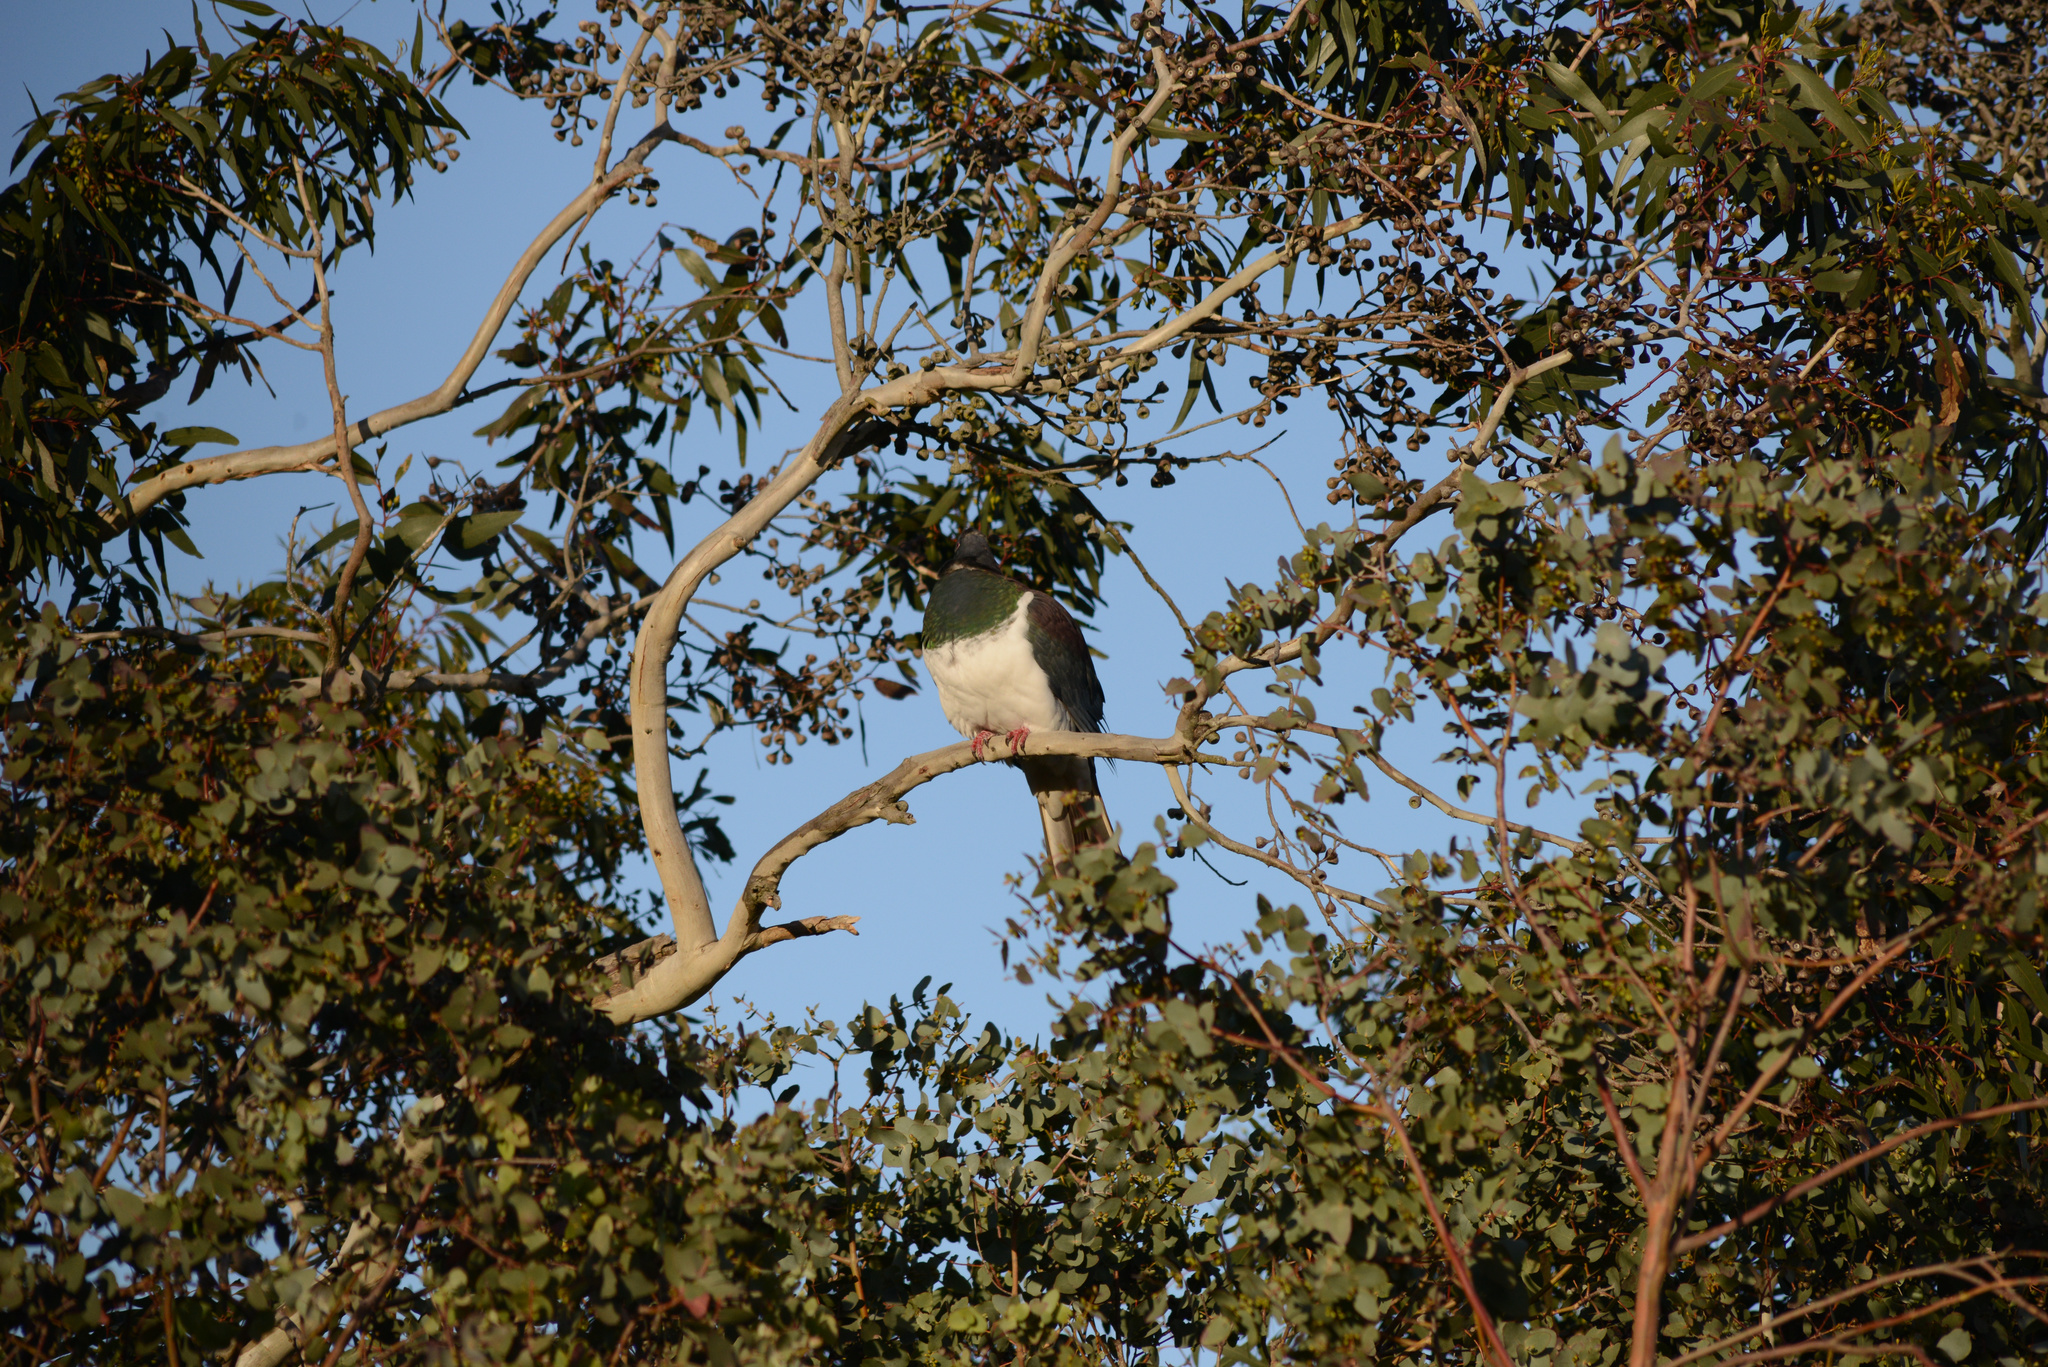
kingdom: Animalia
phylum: Chordata
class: Aves
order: Columbiformes
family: Columbidae
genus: Hemiphaga
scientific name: Hemiphaga novaeseelandiae
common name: New zealand pigeon
